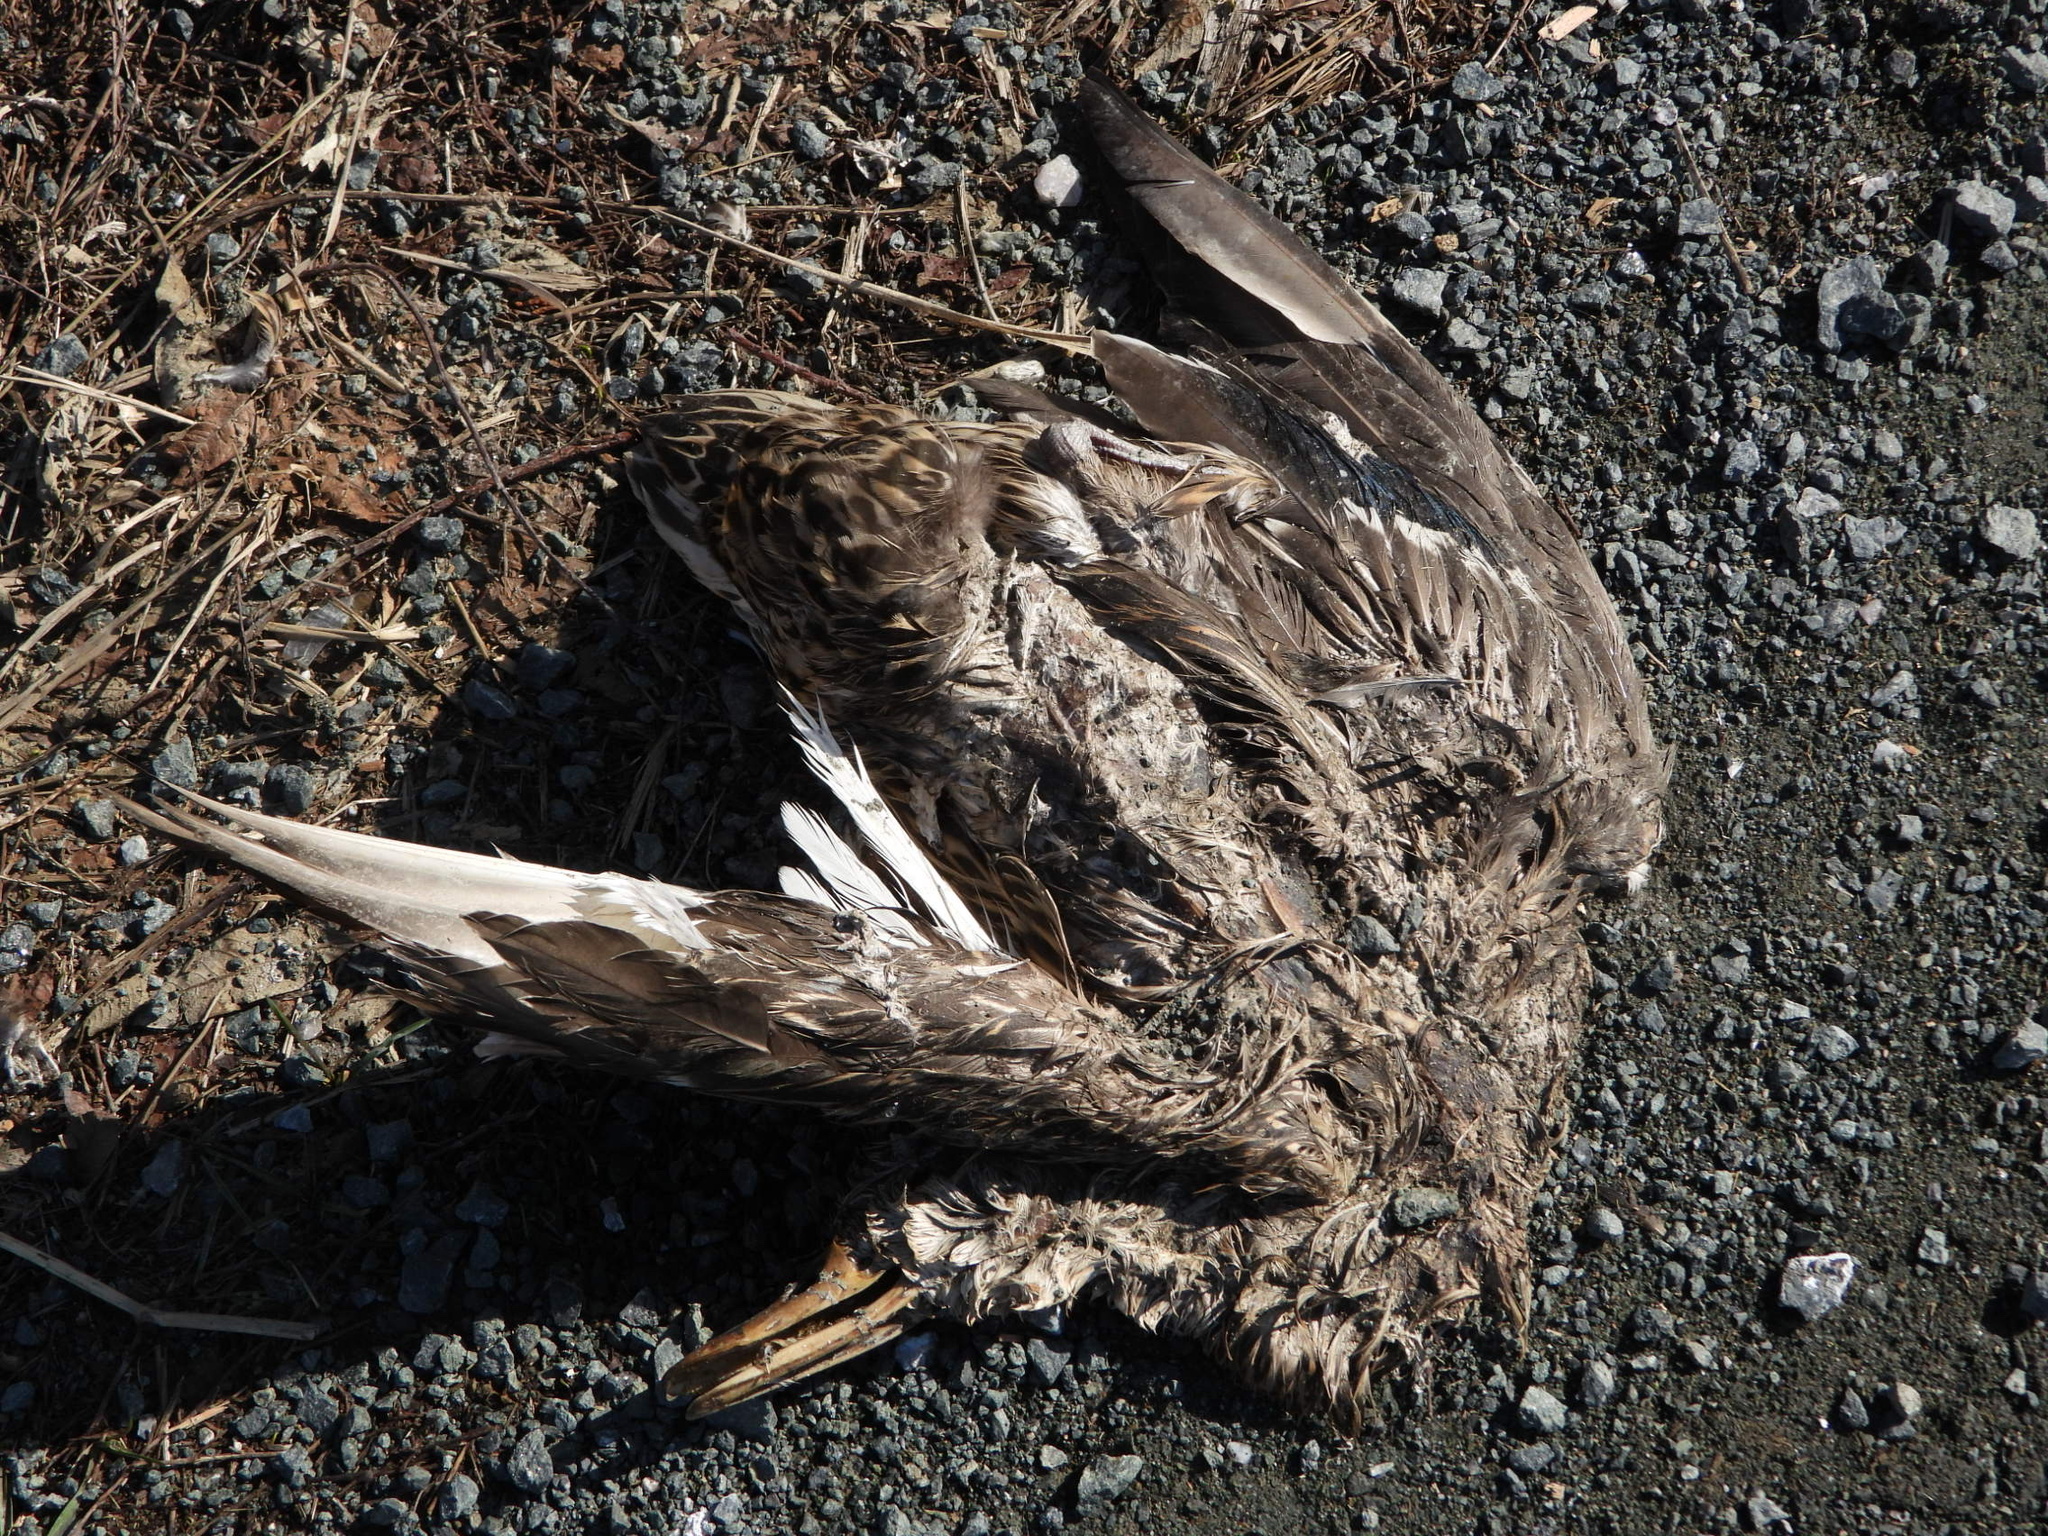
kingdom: Animalia
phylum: Chordata
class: Aves
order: Anseriformes
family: Anatidae
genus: Anas
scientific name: Anas platyrhynchos
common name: Mallard
